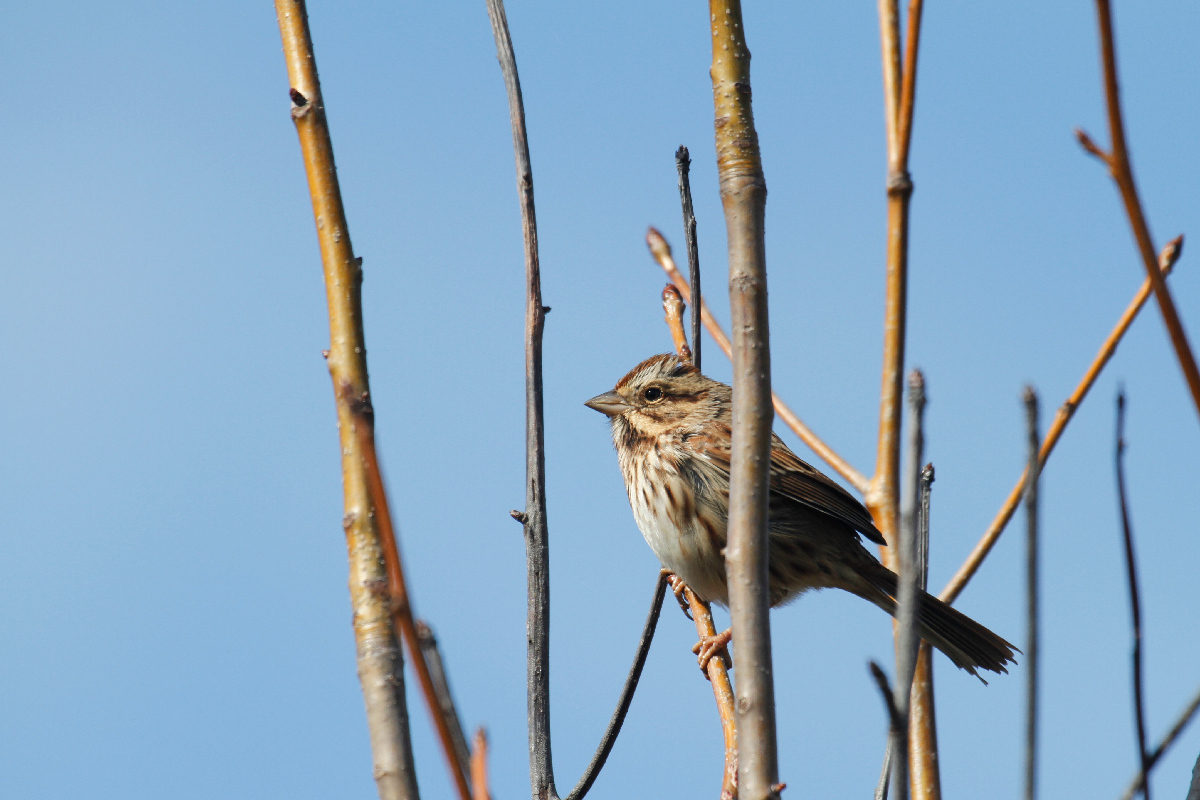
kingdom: Animalia
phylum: Chordata
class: Aves
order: Passeriformes
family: Passerellidae
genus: Melospiza
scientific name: Melospiza melodia
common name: Song sparrow
